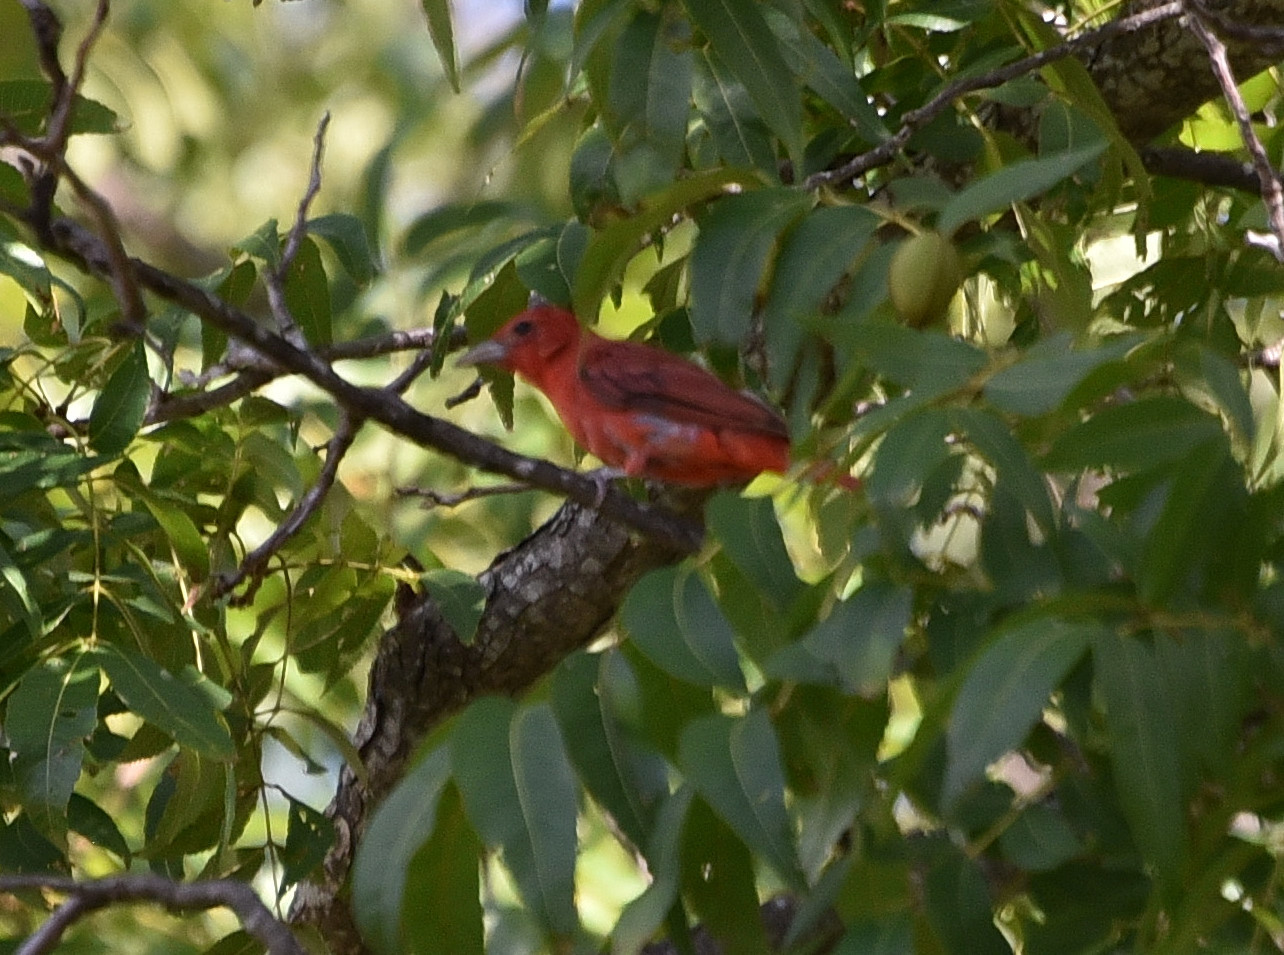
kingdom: Animalia
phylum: Chordata
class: Aves
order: Passeriformes
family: Cardinalidae
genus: Piranga
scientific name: Piranga rubra
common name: Summer tanager
